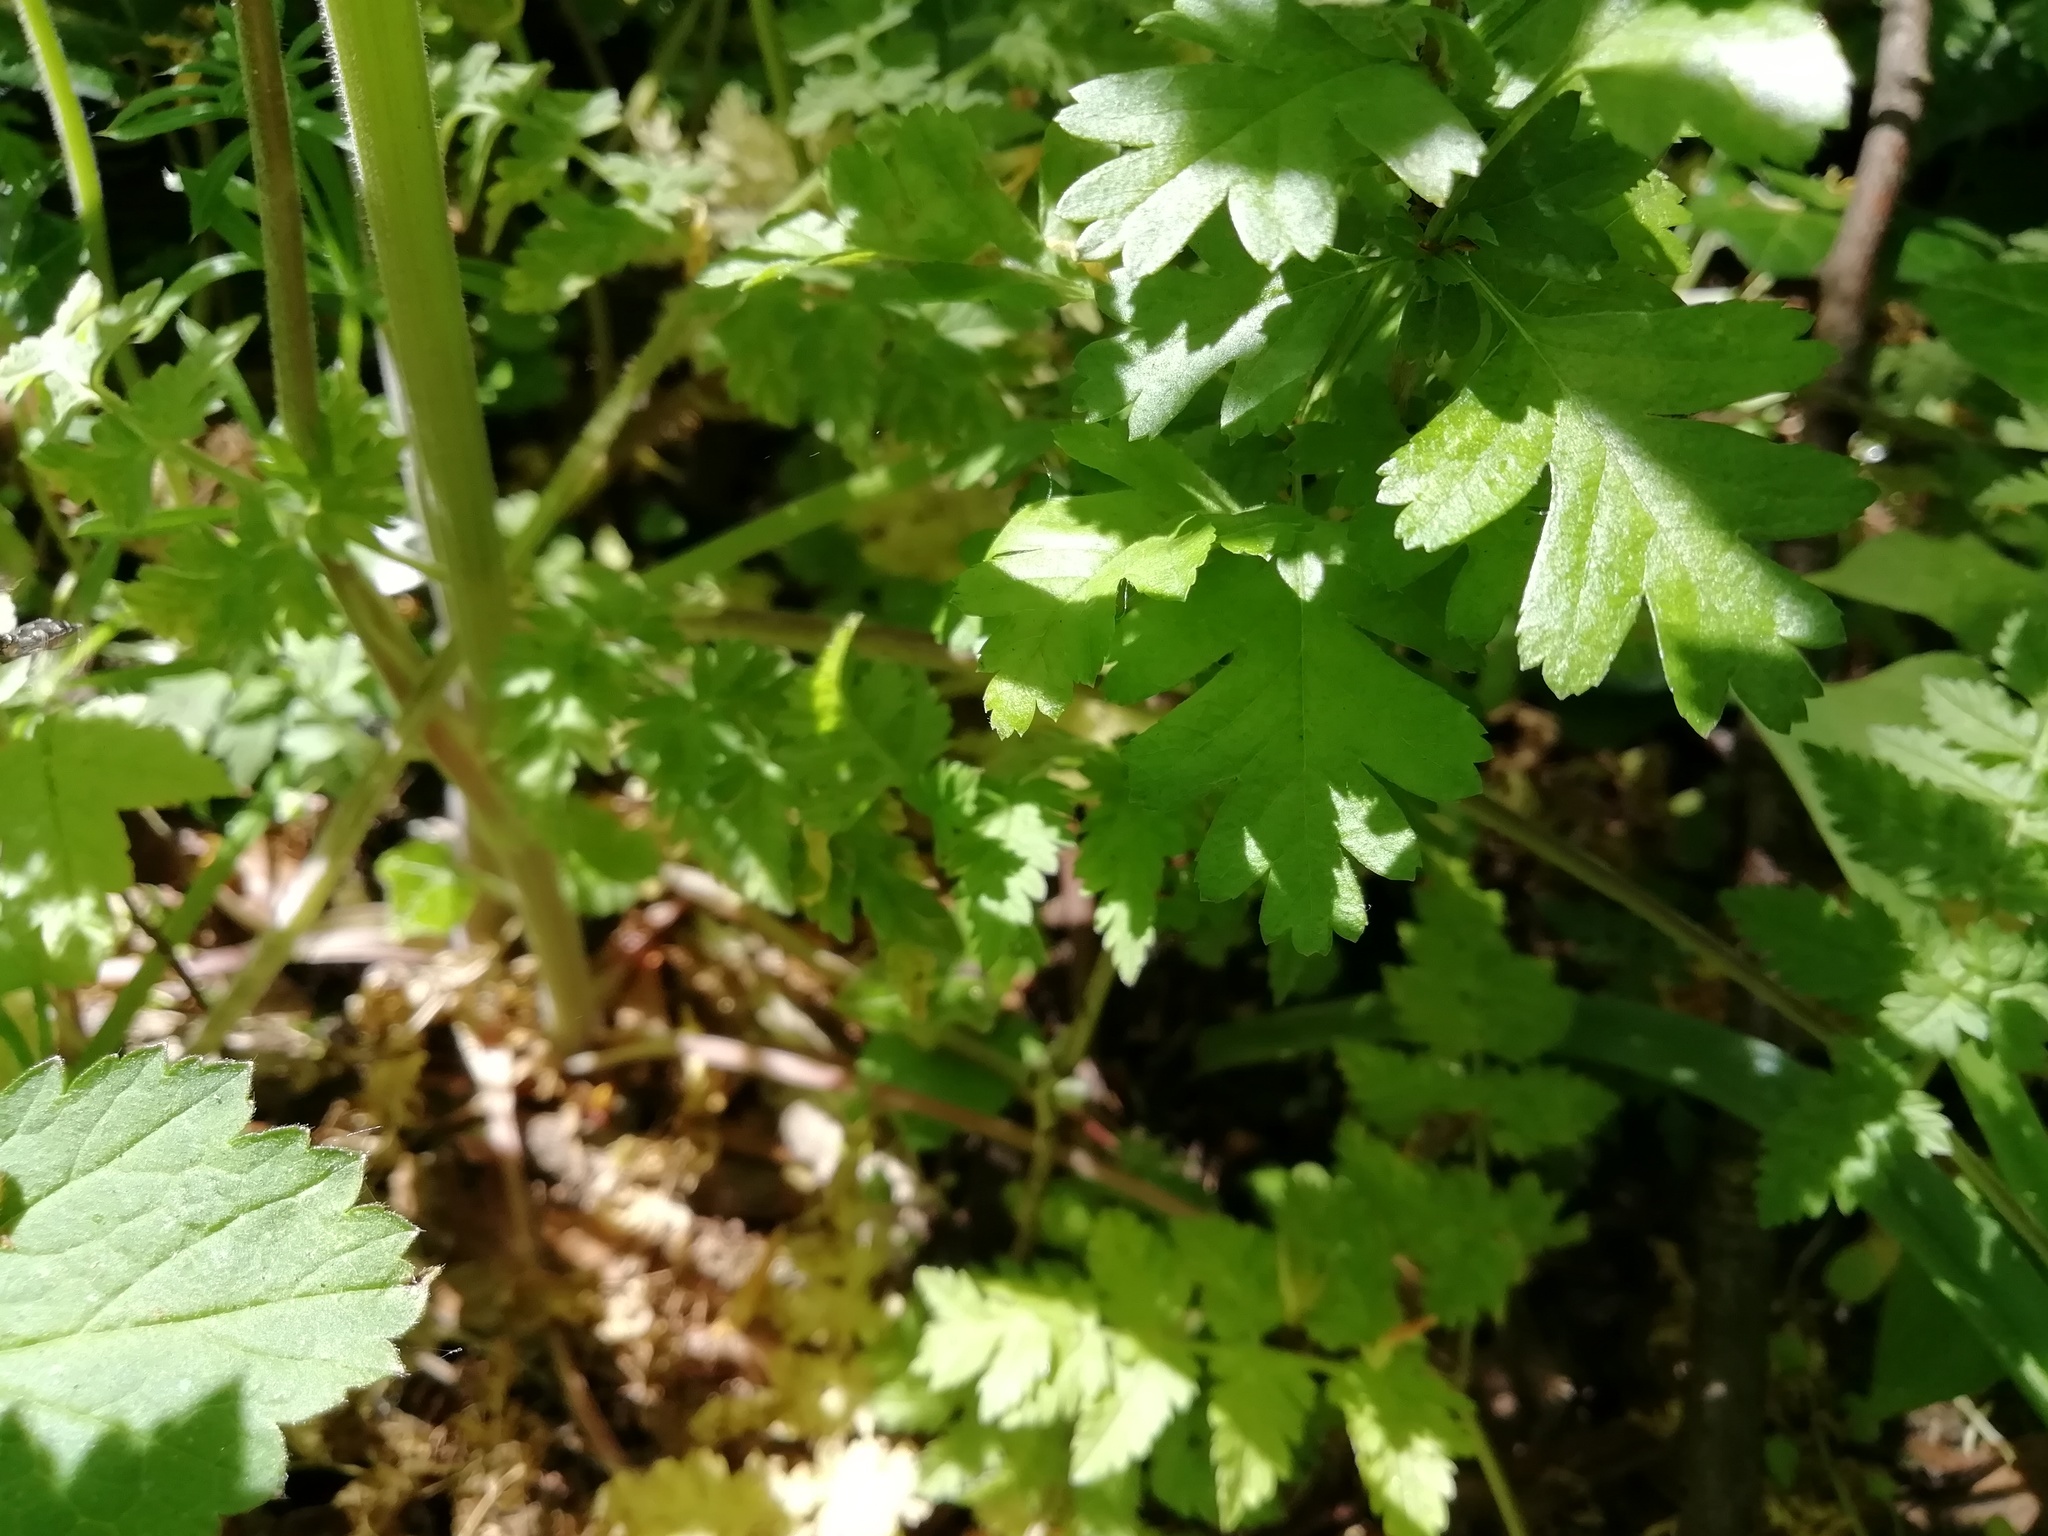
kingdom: Plantae
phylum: Tracheophyta
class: Magnoliopsida
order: Rosales
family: Rosaceae
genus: Crataegus
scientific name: Crataegus monogyna
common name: Hawthorn
